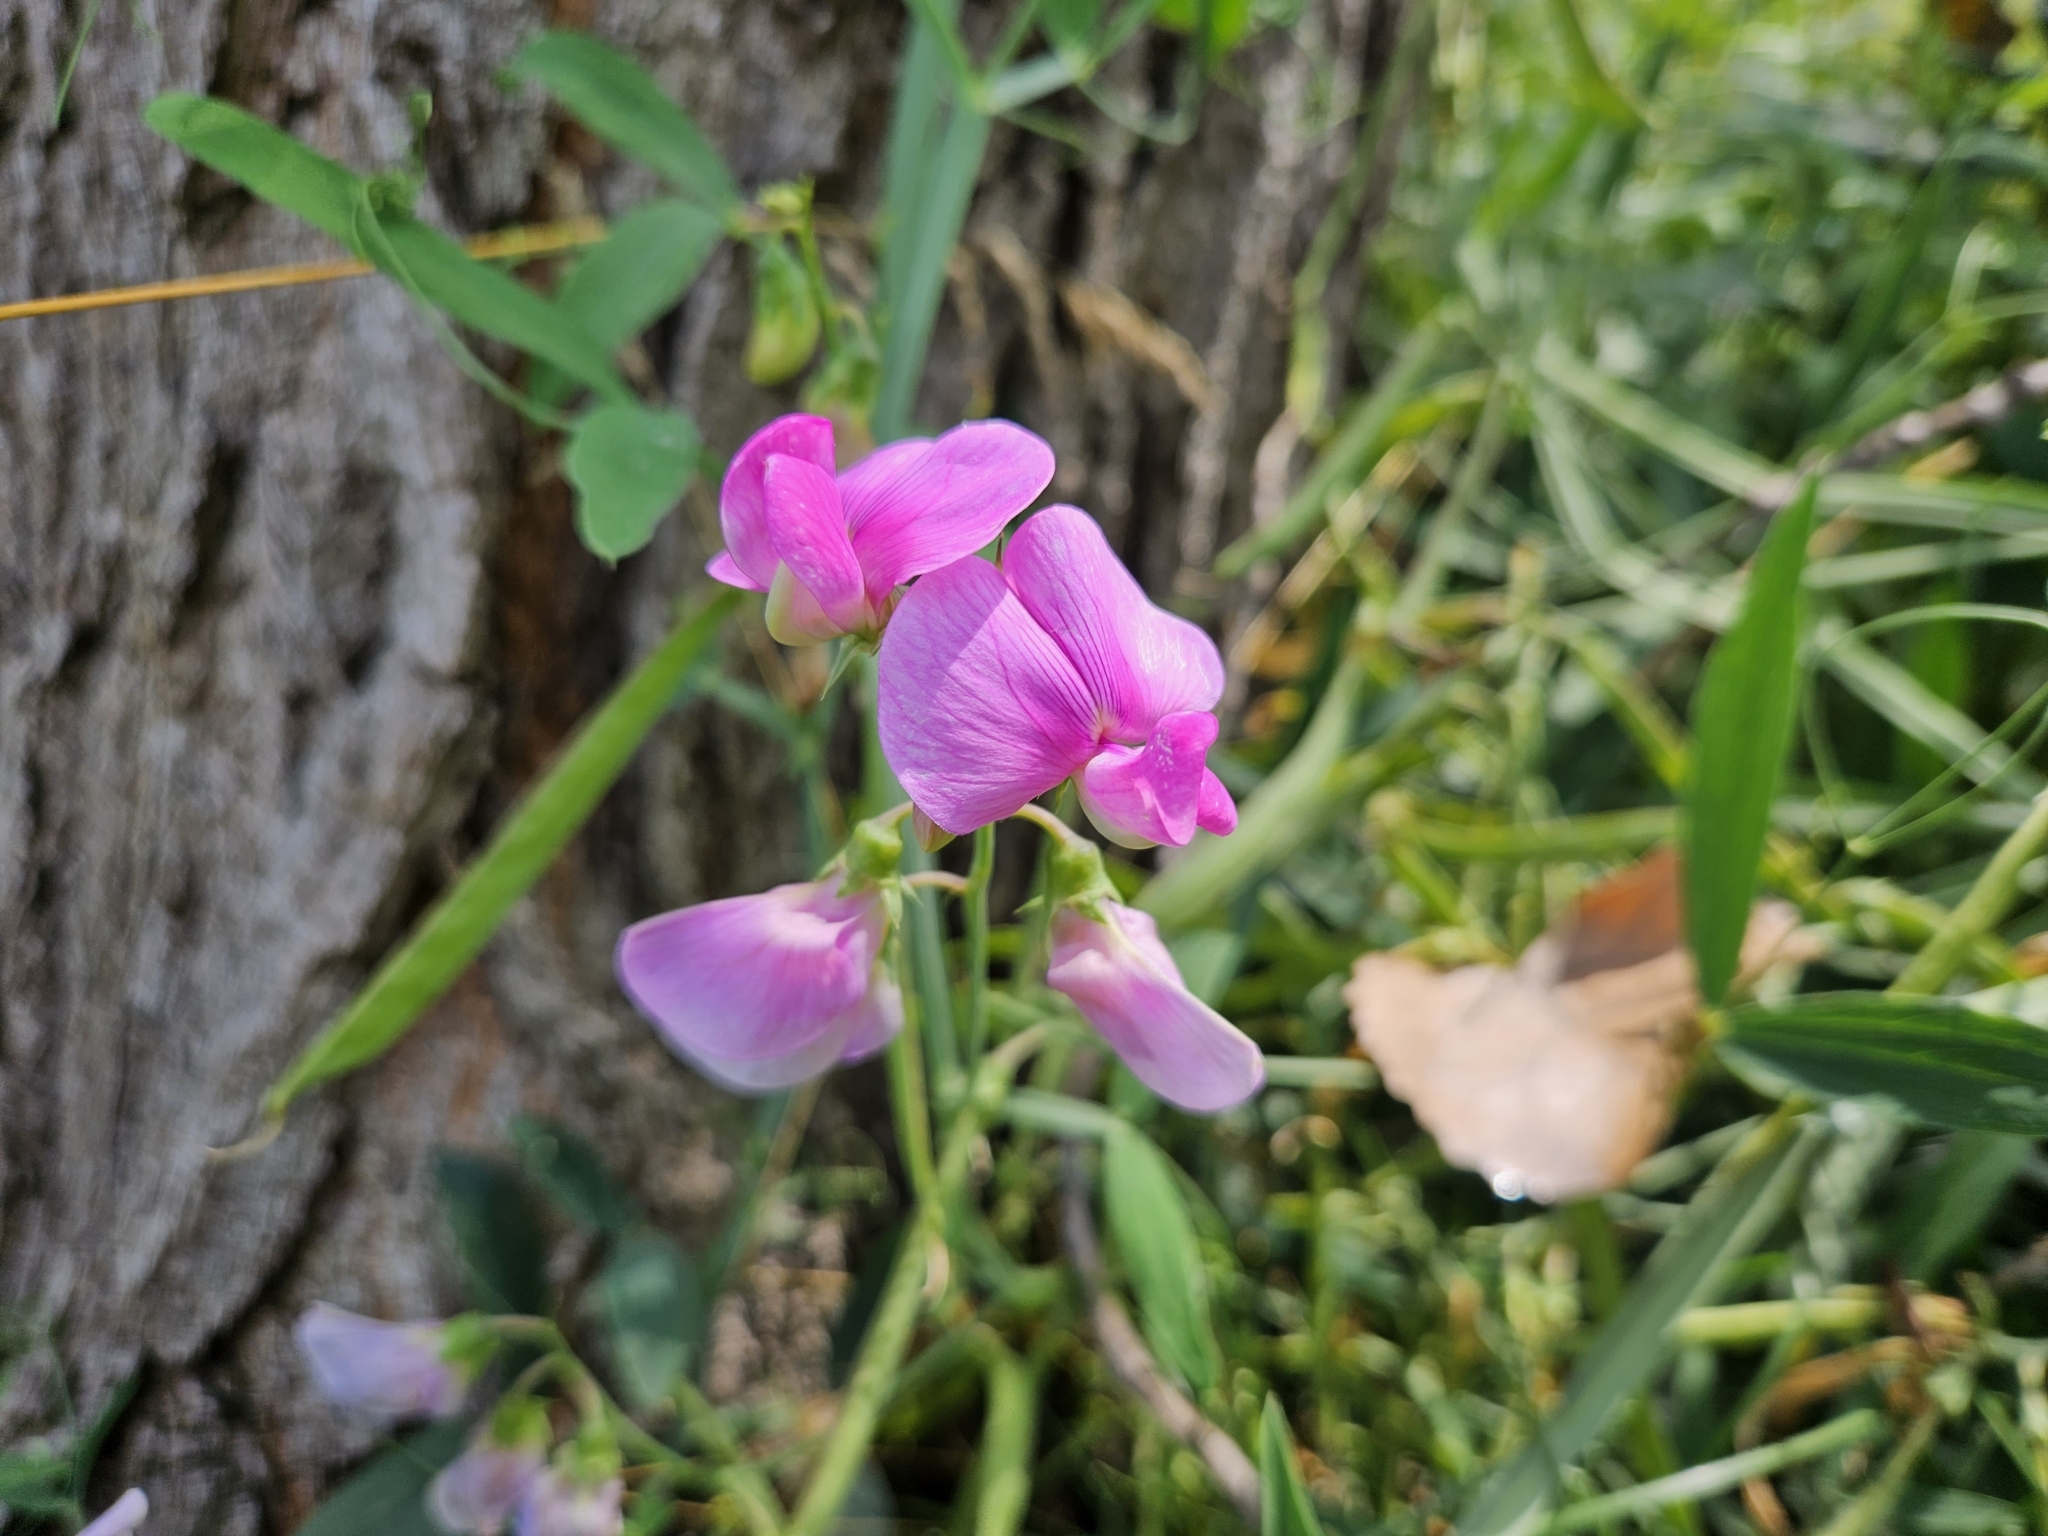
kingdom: Plantae
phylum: Tracheophyta
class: Magnoliopsida
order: Fabales
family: Fabaceae
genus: Lathyrus
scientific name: Lathyrus latifolius
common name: Perennial pea
